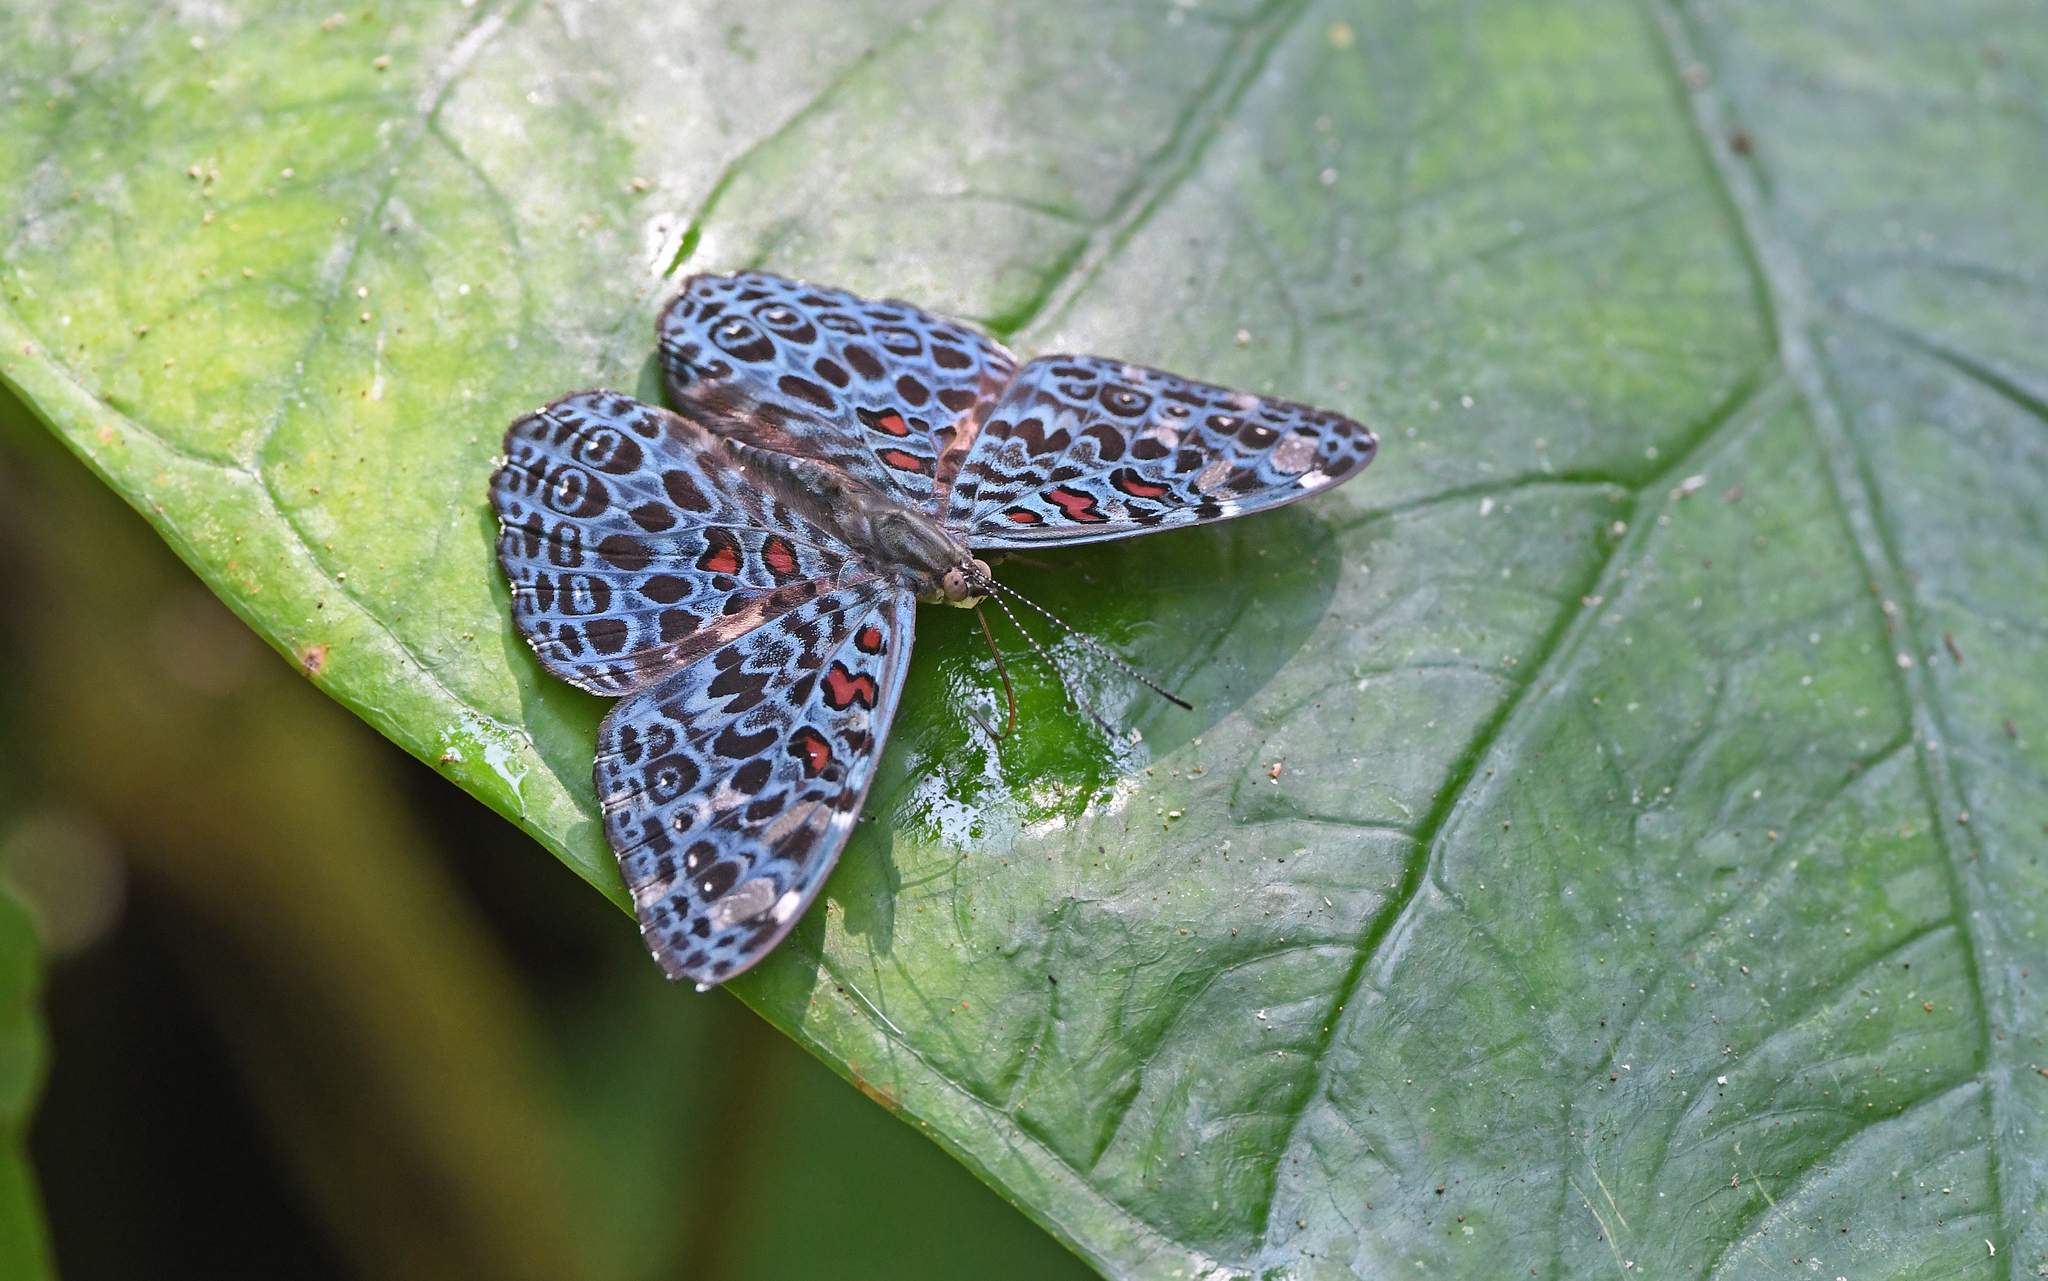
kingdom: Animalia
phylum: Arthropoda
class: Insecta
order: Lepidoptera
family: Nymphalidae
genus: Hamadryas
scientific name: Hamadryas chloe
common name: Amazon cracker
